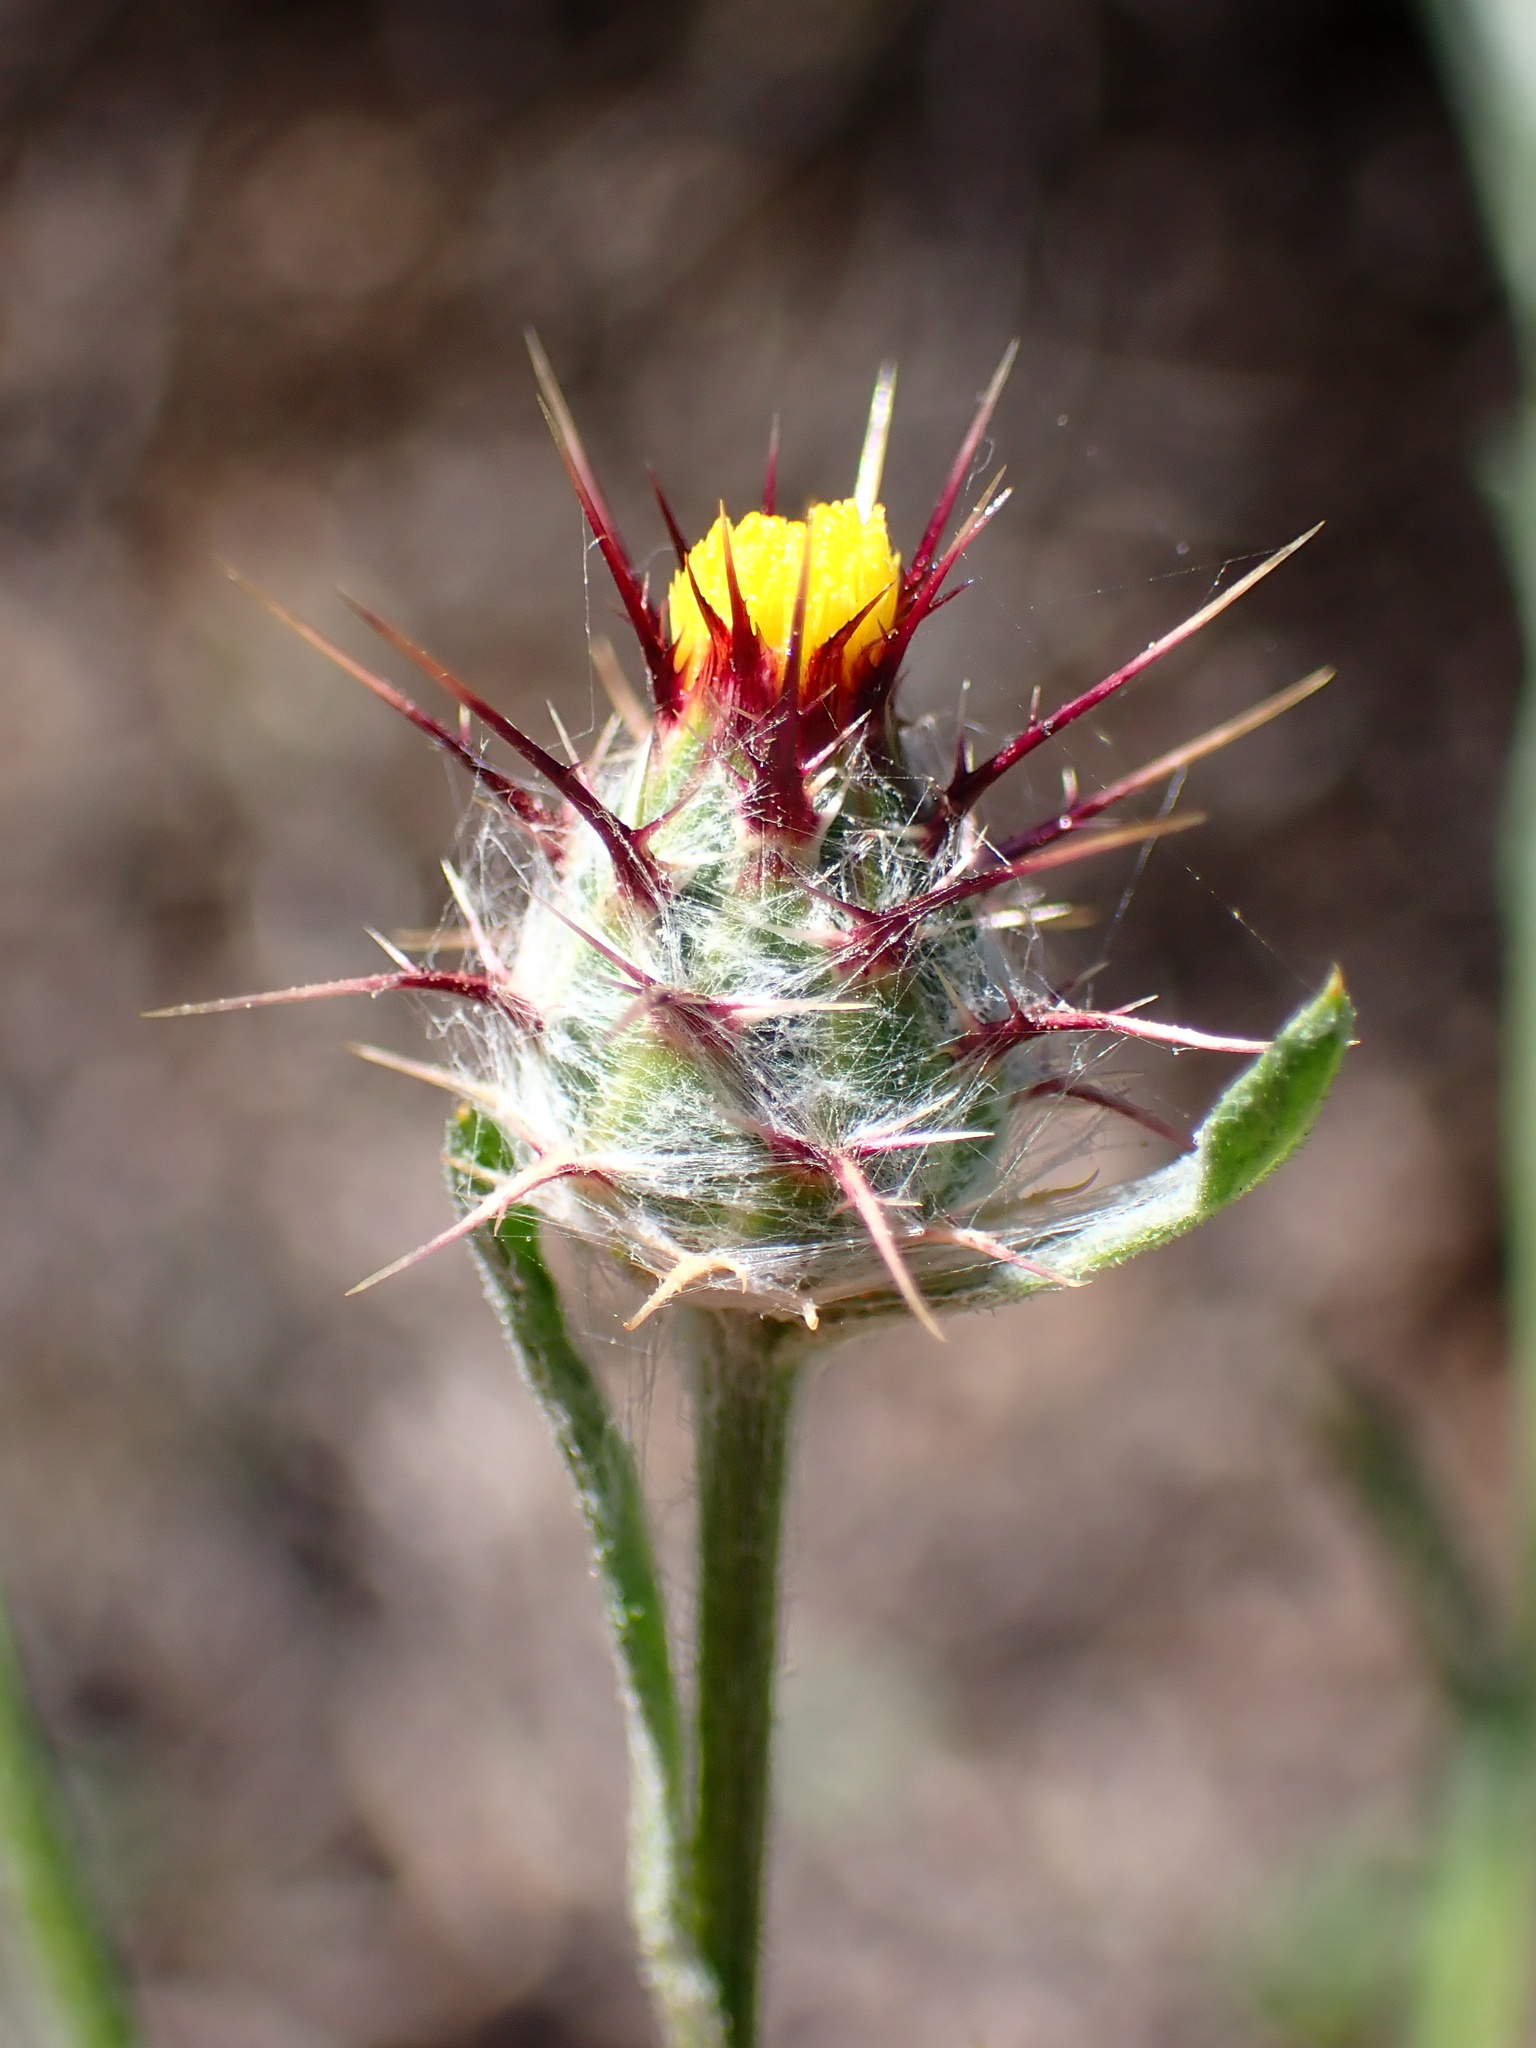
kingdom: Plantae
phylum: Tracheophyta
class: Magnoliopsida
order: Asterales
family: Asteraceae
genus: Centaurea
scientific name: Centaurea melitensis
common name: Maltese star-thistle
